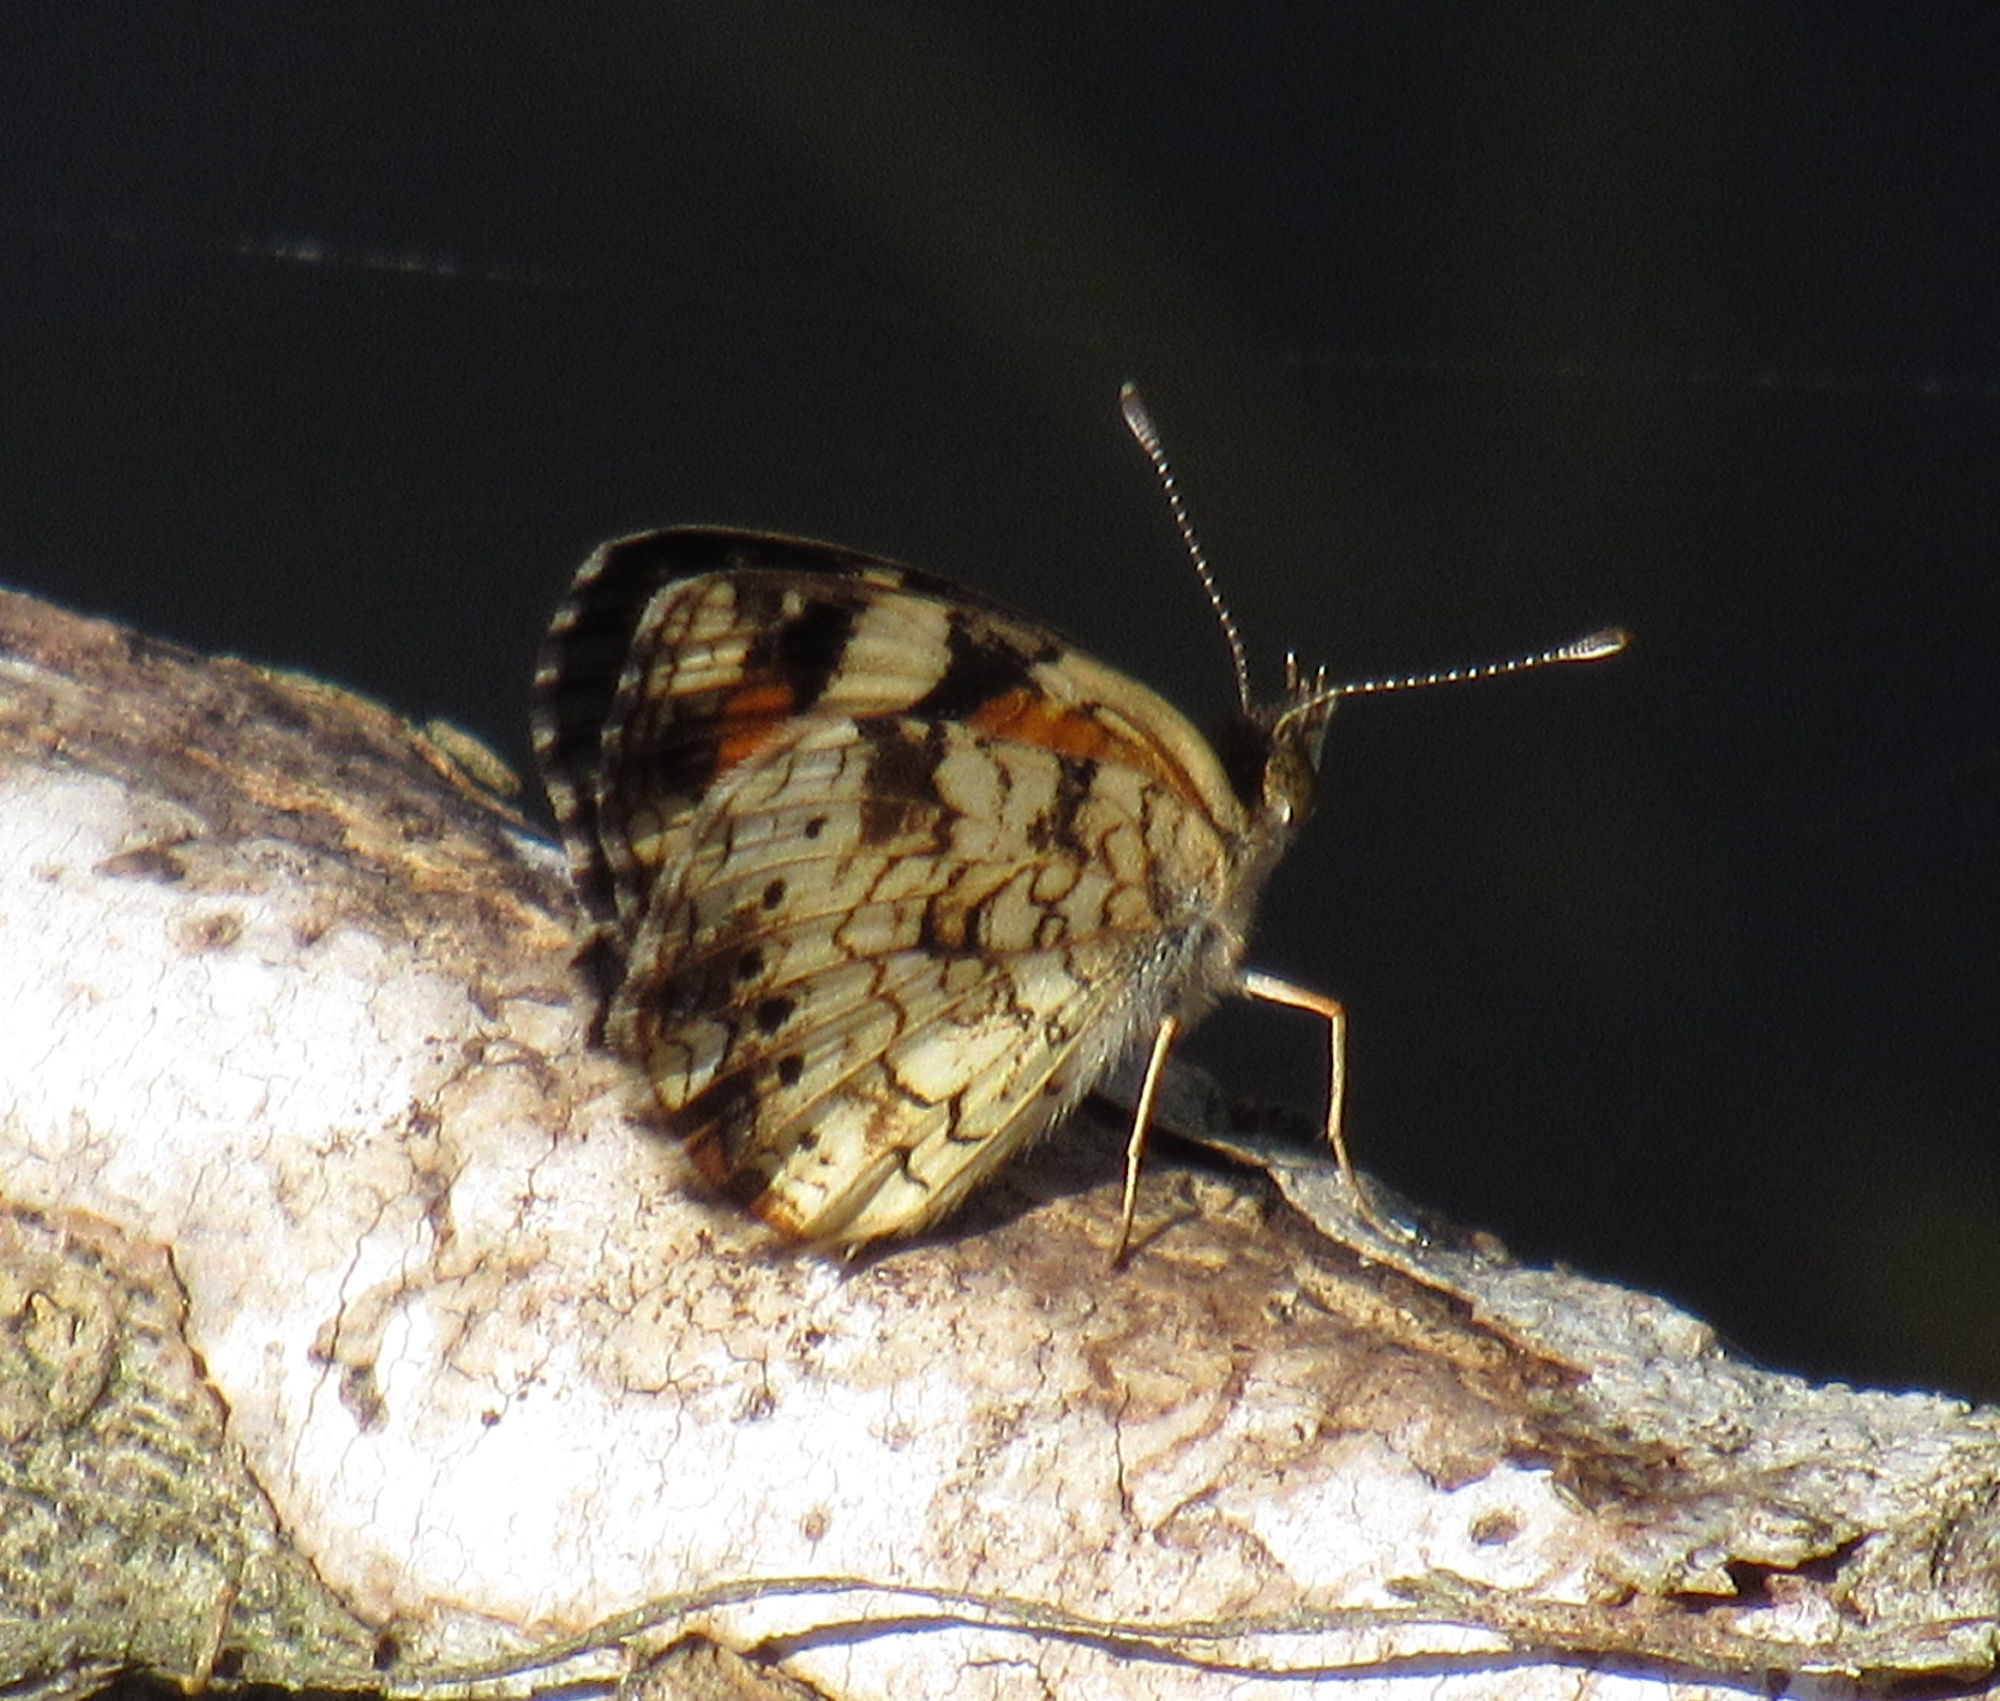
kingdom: Animalia
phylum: Arthropoda
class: Insecta
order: Lepidoptera
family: Nymphalidae
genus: Phyciodes
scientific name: Phyciodes phaon
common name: Phaon crescent
